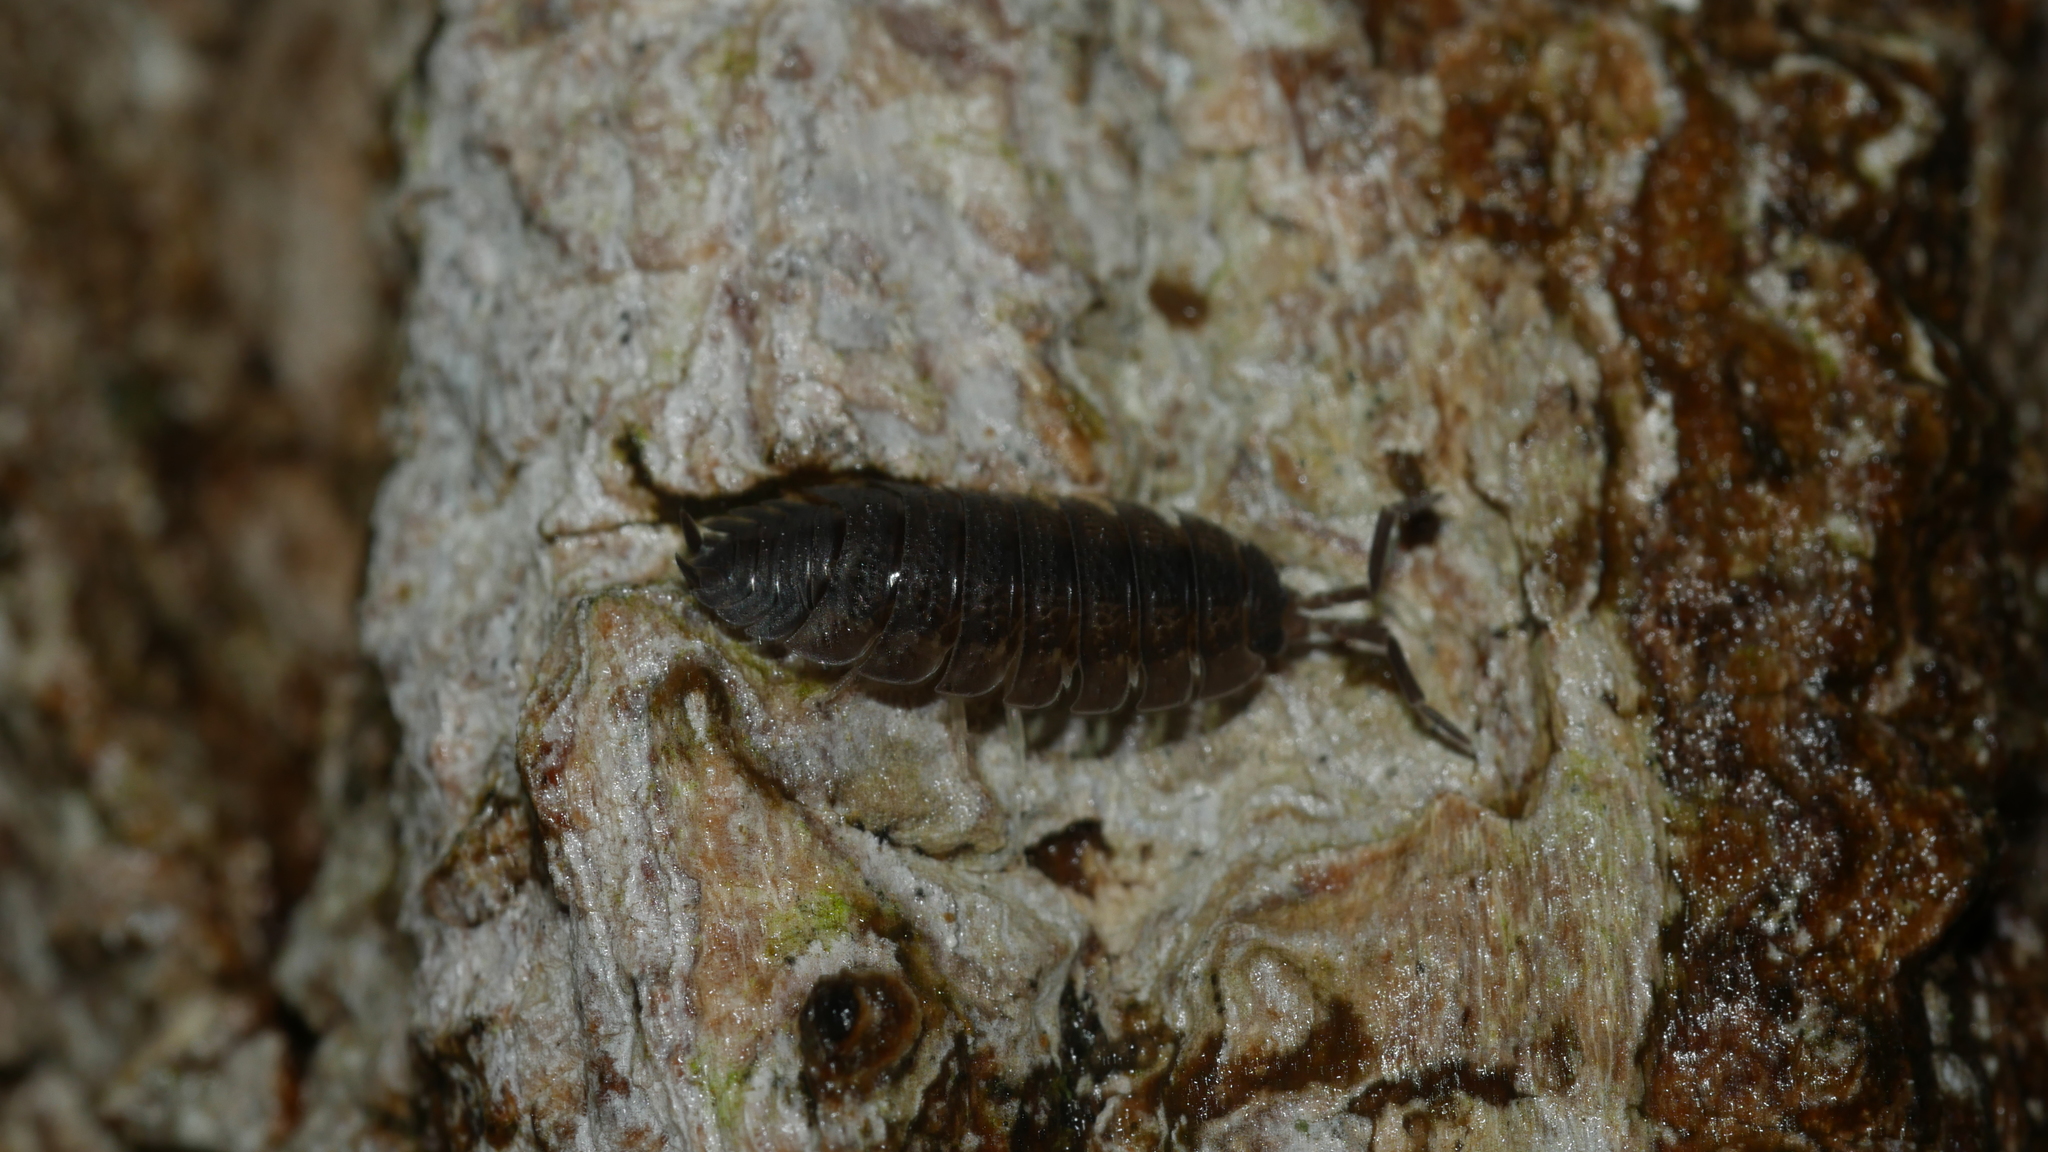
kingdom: Animalia
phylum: Arthropoda
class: Malacostraca
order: Isopoda
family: Porcellionidae
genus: Porcellio
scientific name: Porcellio scaber
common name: Common rough woodlouse
